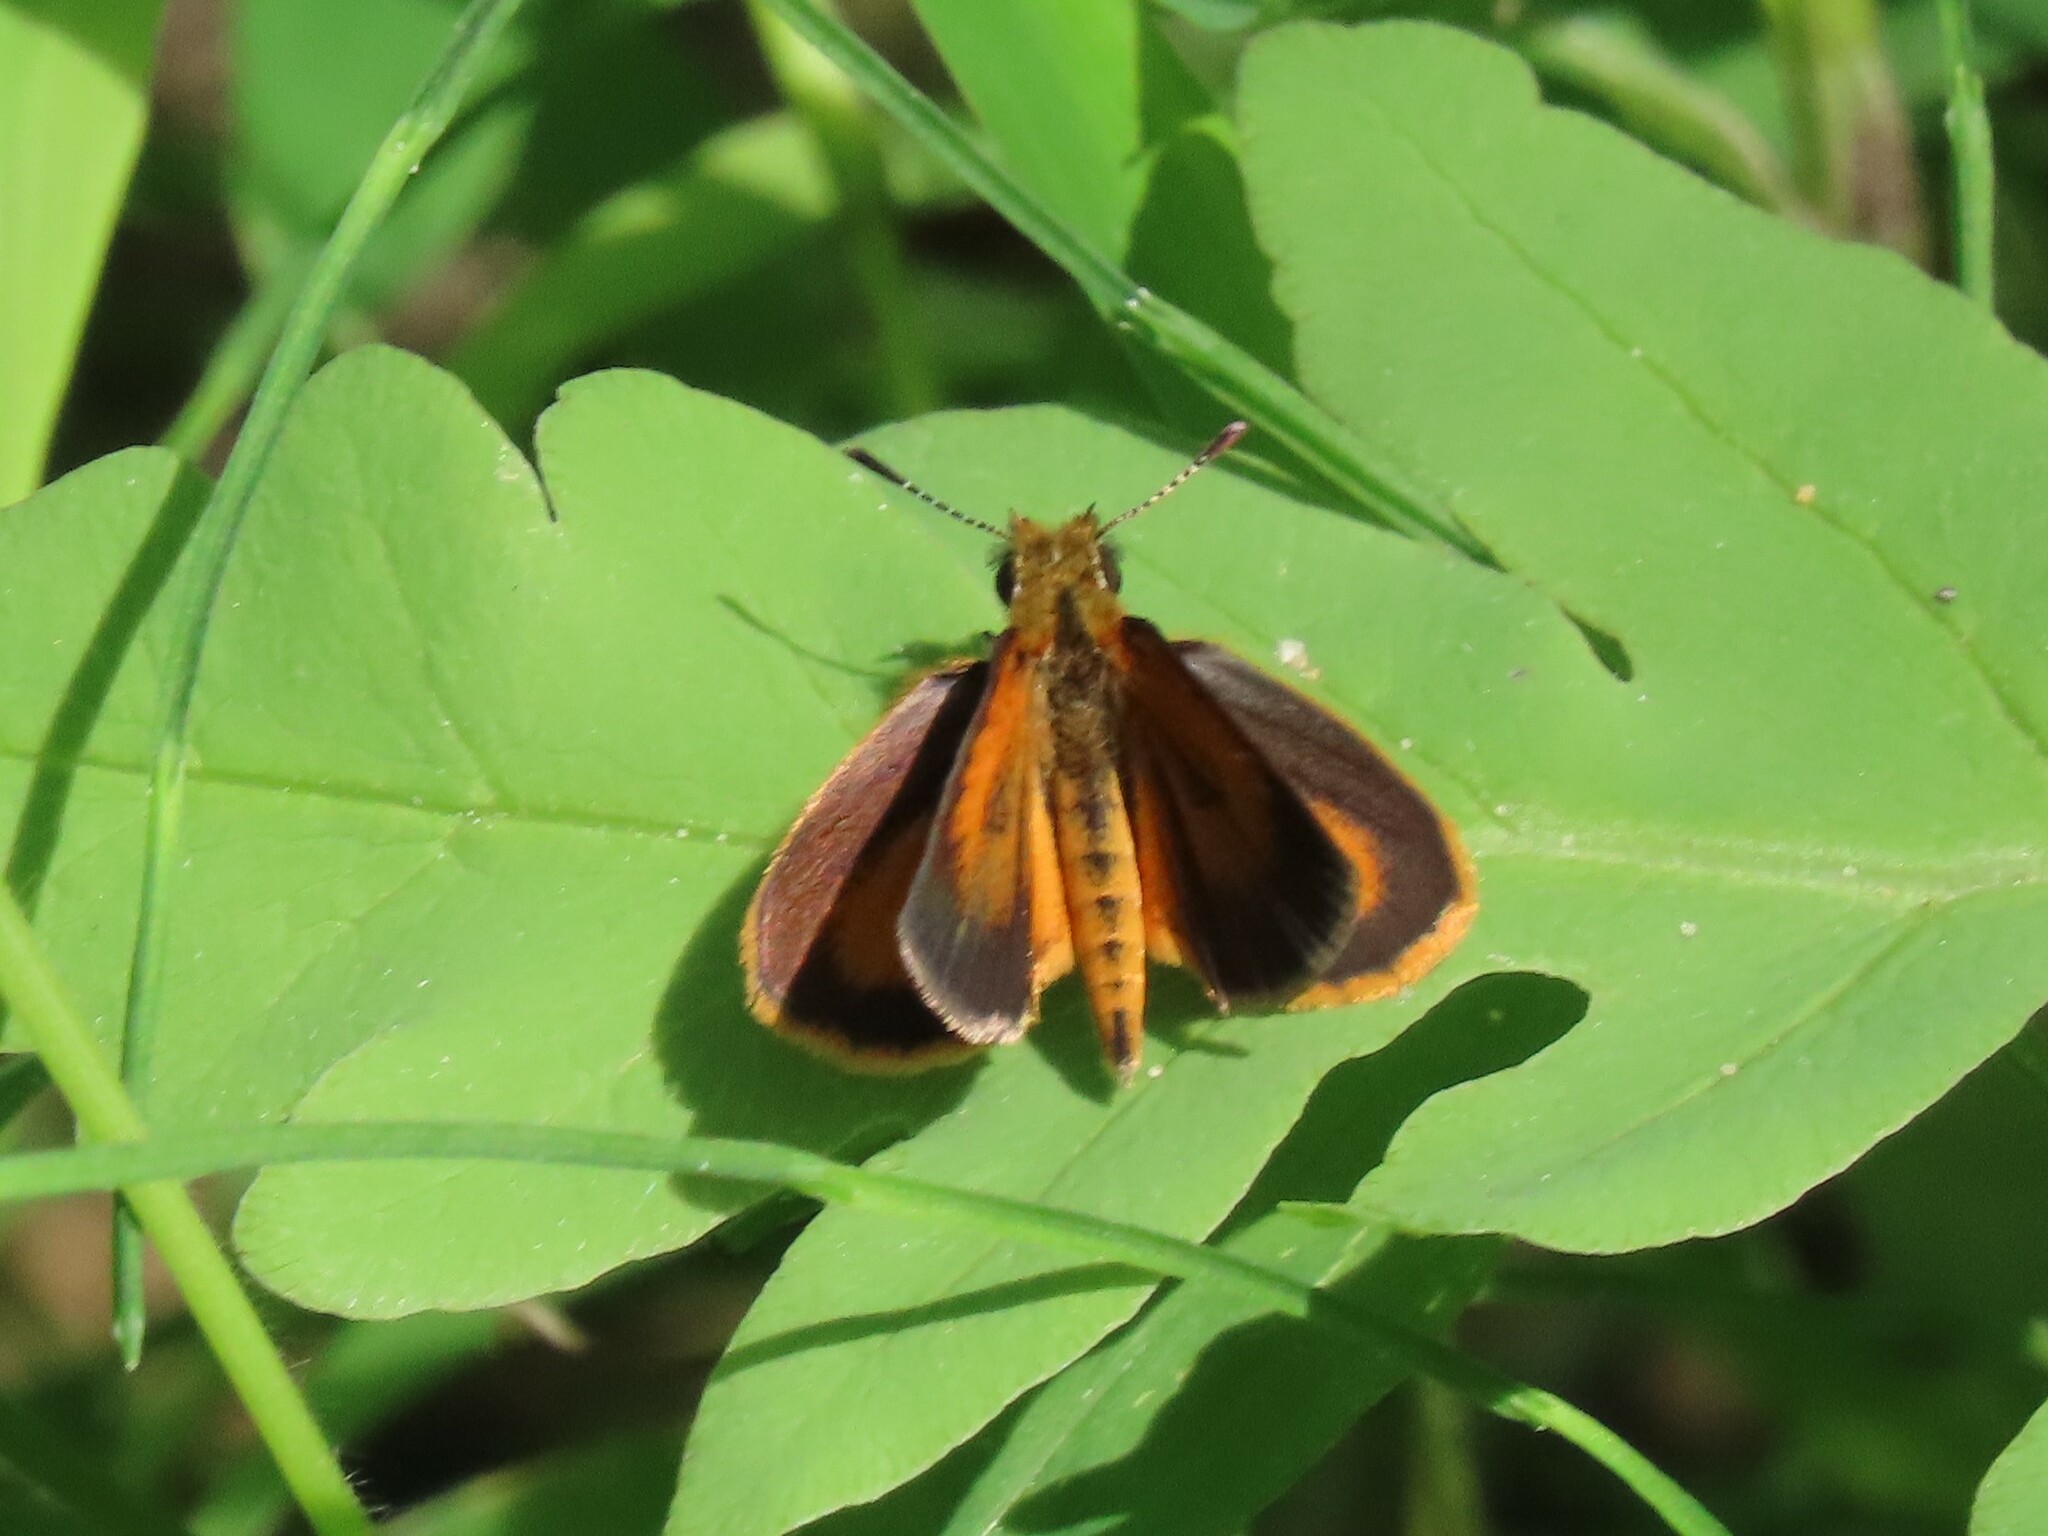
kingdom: Animalia
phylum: Arthropoda
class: Insecta
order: Lepidoptera
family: Hesperiidae
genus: Ancyloxypha
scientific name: Ancyloxypha numitor
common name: Least skipper
